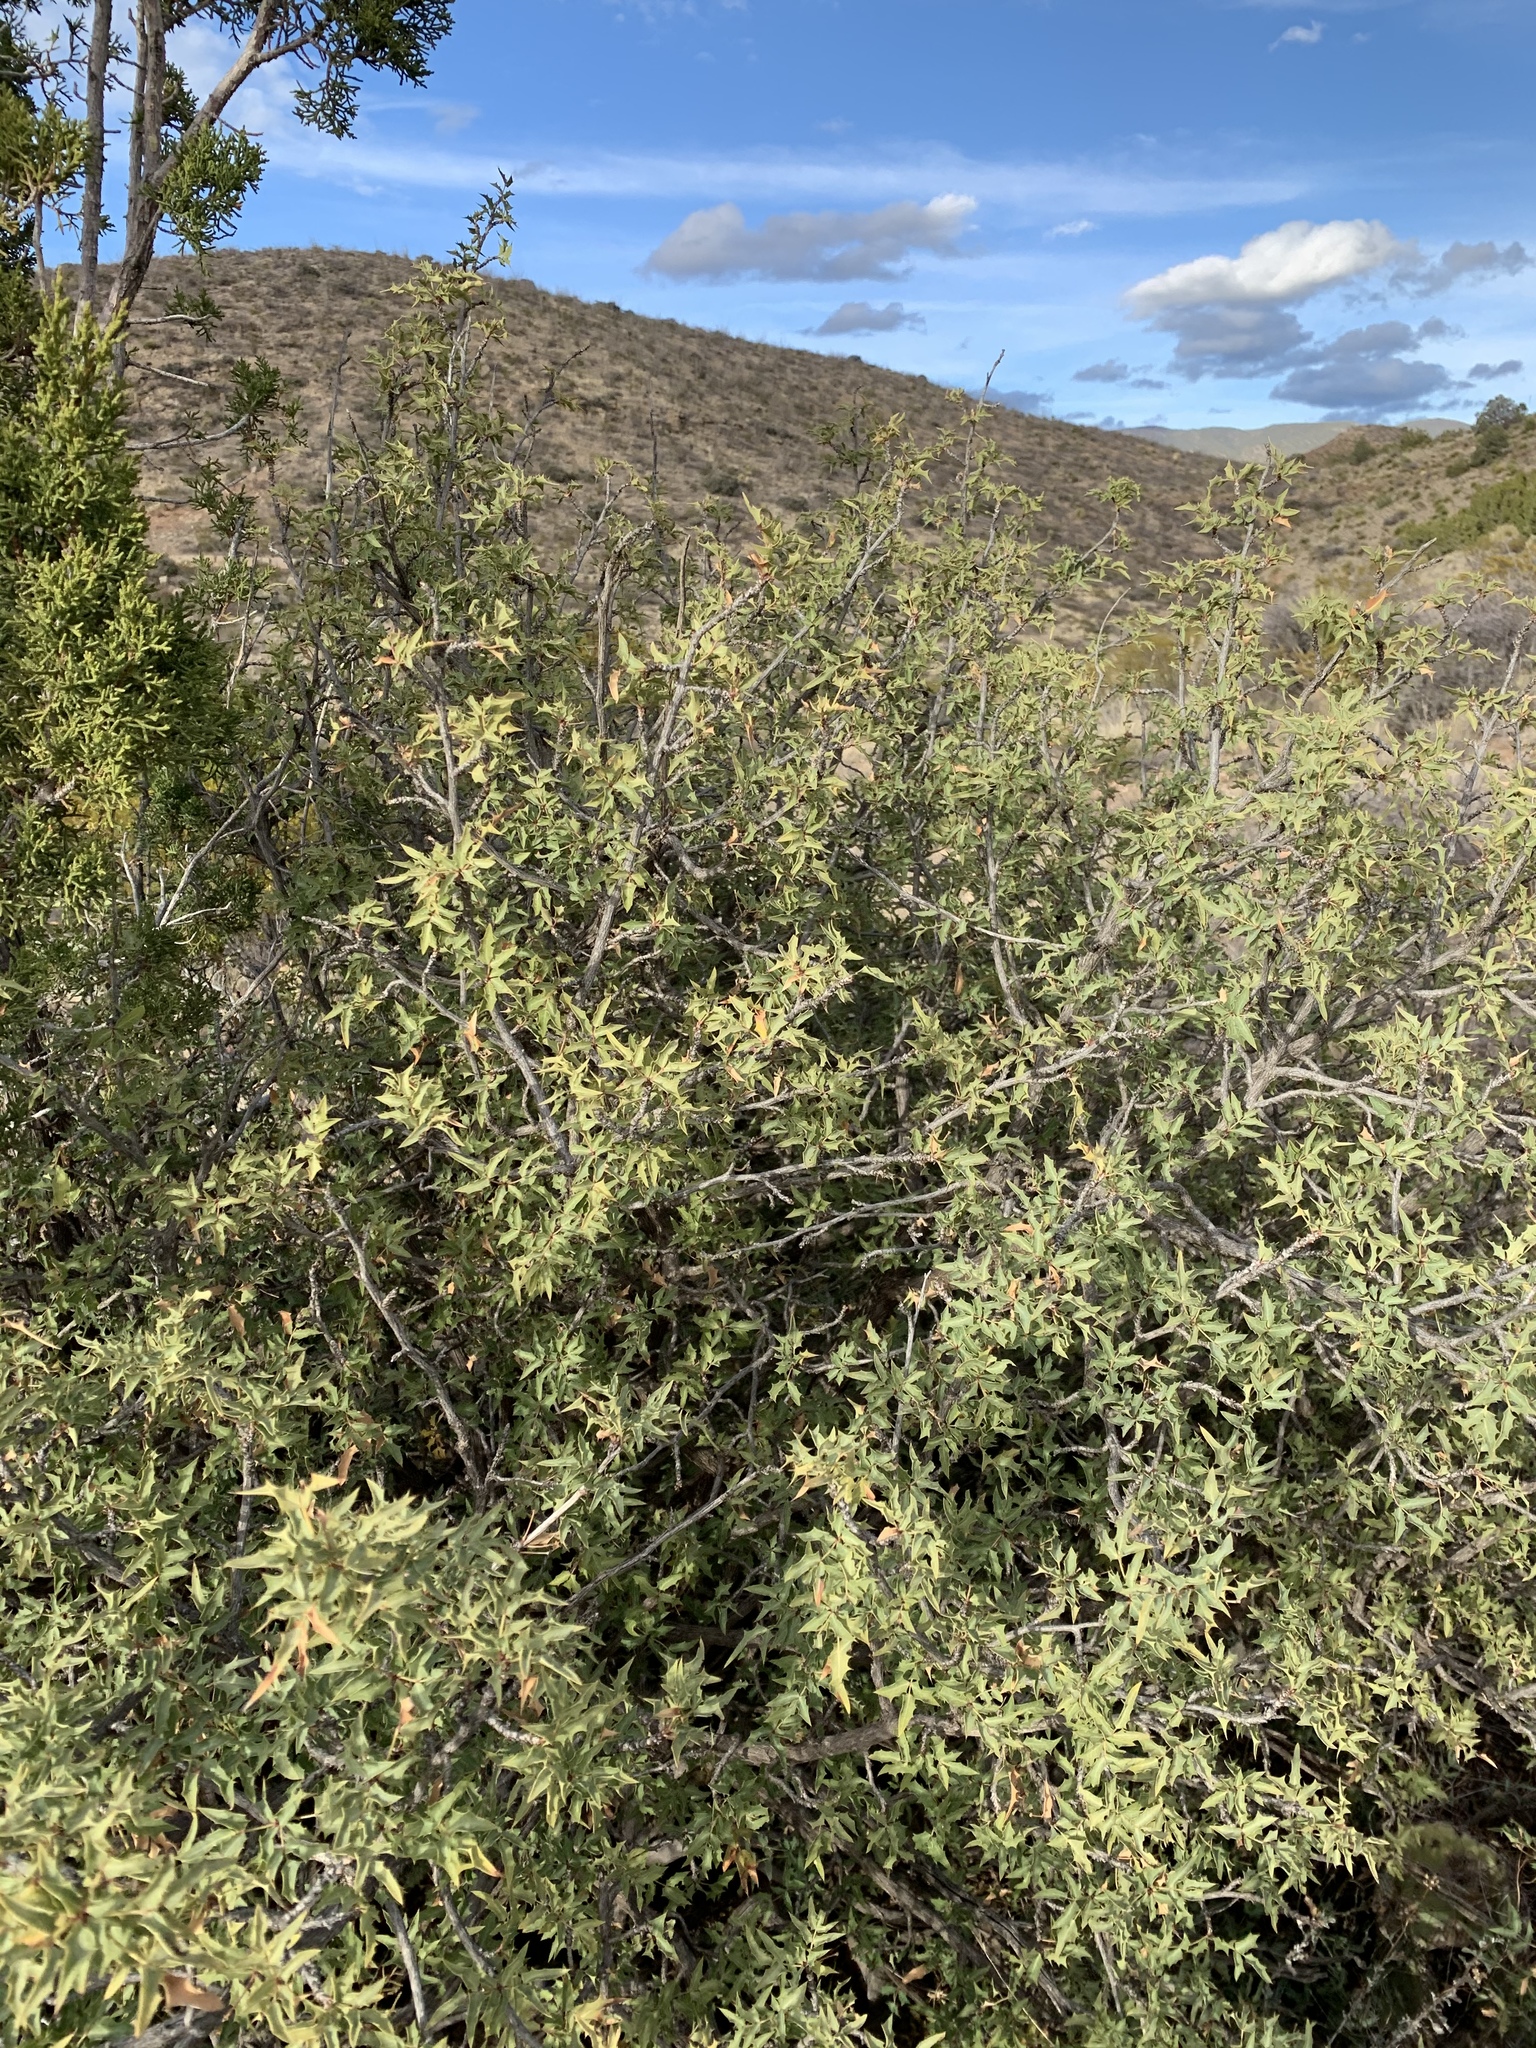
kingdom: Plantae
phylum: Tracheophyta
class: Magnoliopsida
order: Ranunculales
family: Berberidaceae
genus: Alloberberis
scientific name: Alloberberis haematocarpa
